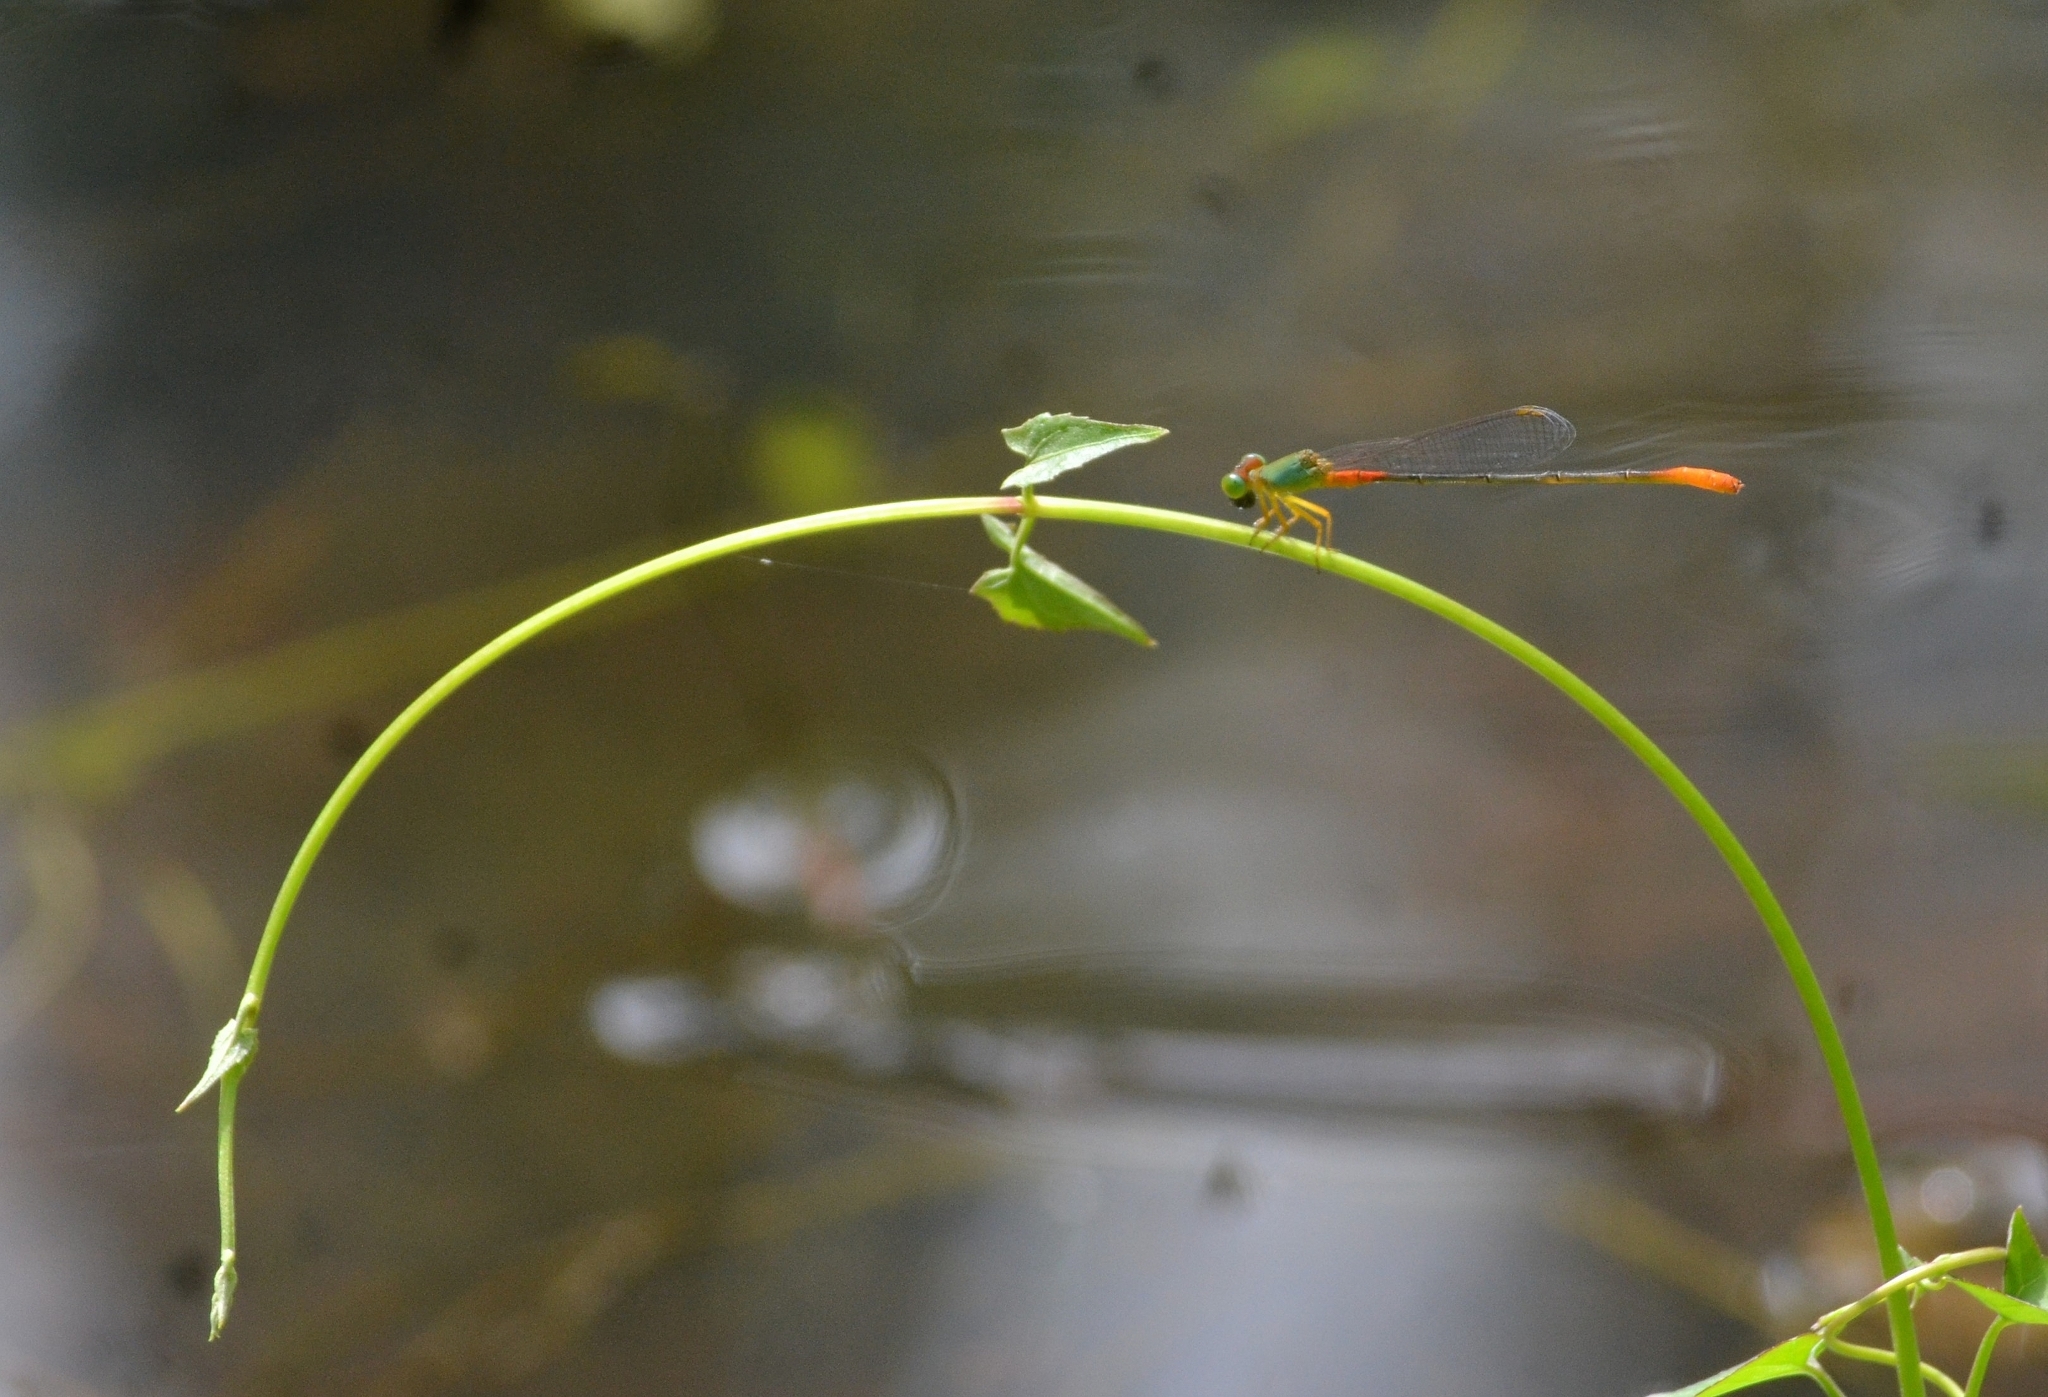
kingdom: Animalia
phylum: Arthropoda
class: Insecta
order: Odonata
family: Coenagrionidae
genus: Ceriagrion
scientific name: Ceriagrion cerinorubellum
